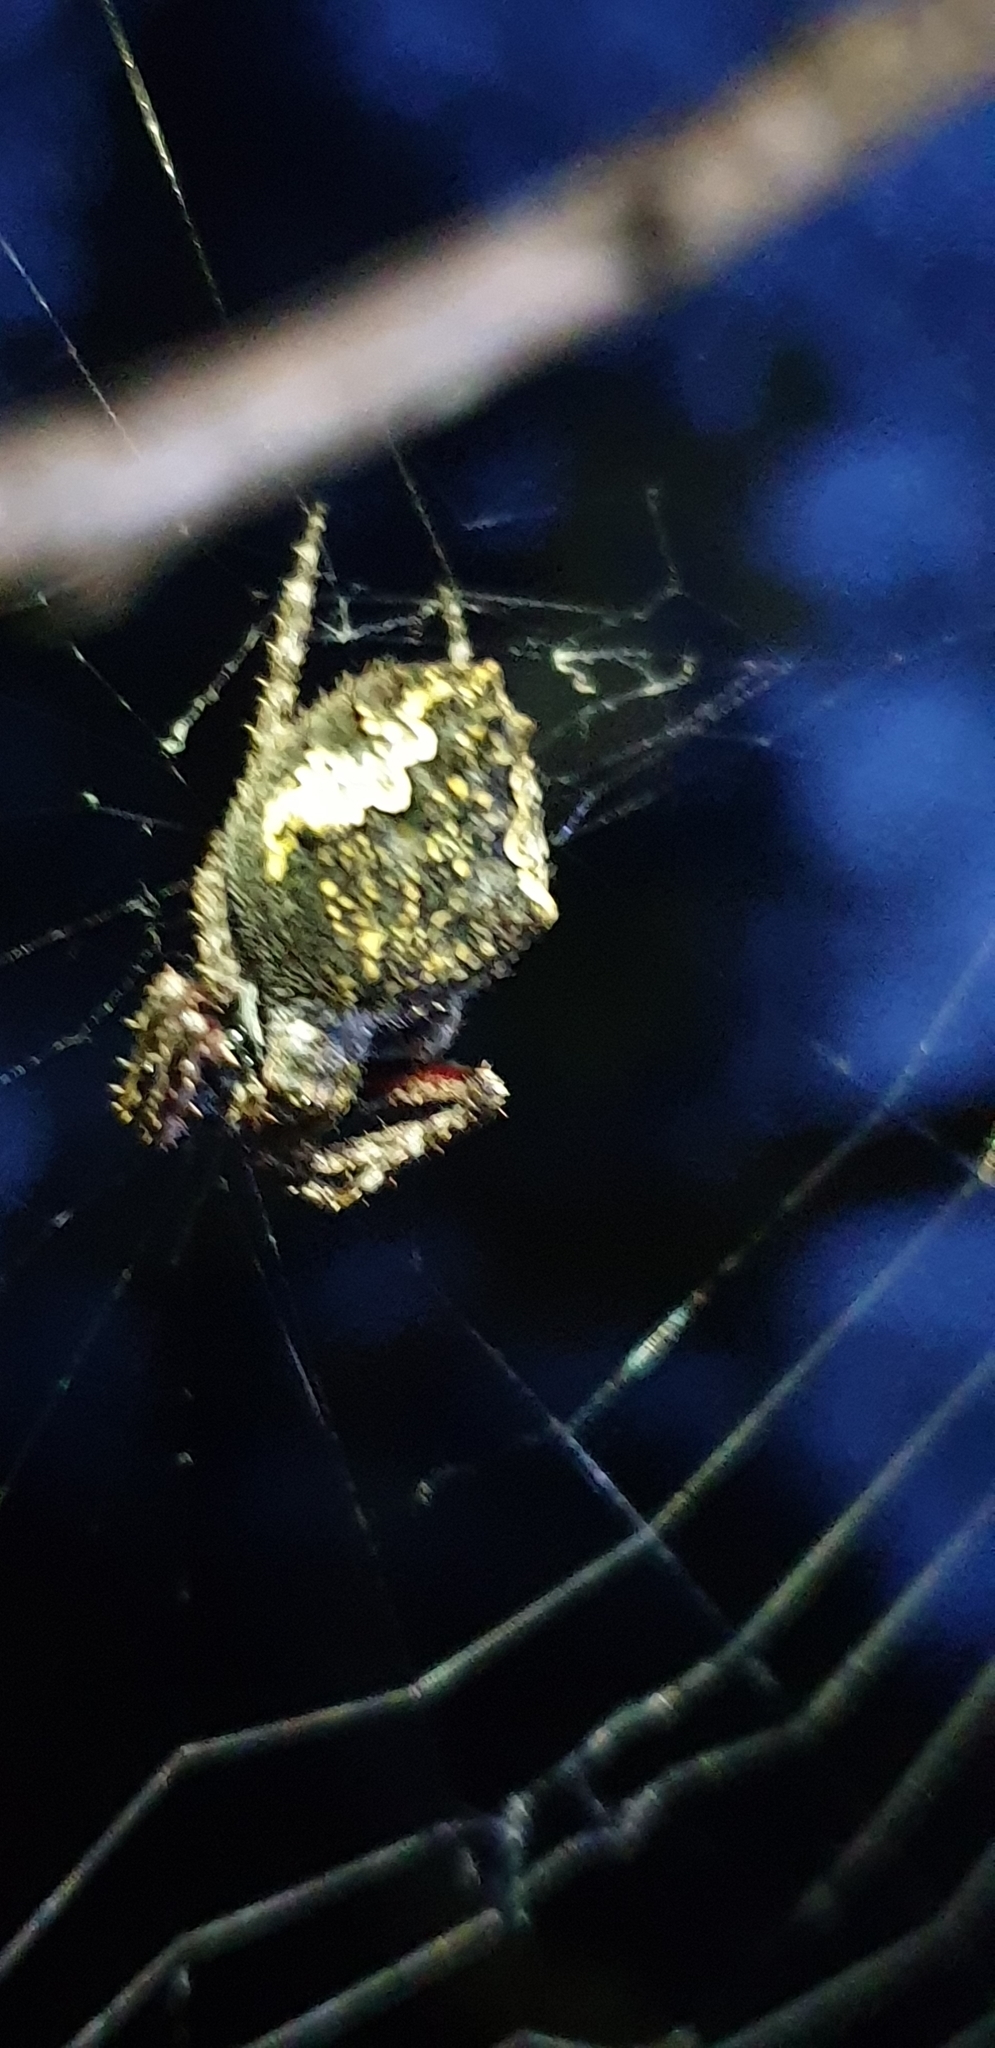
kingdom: Animalia
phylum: Arthropoda
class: Arachnida
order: Araneae
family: Araneidae
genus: Eriophora
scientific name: Eriophora pustulosa
